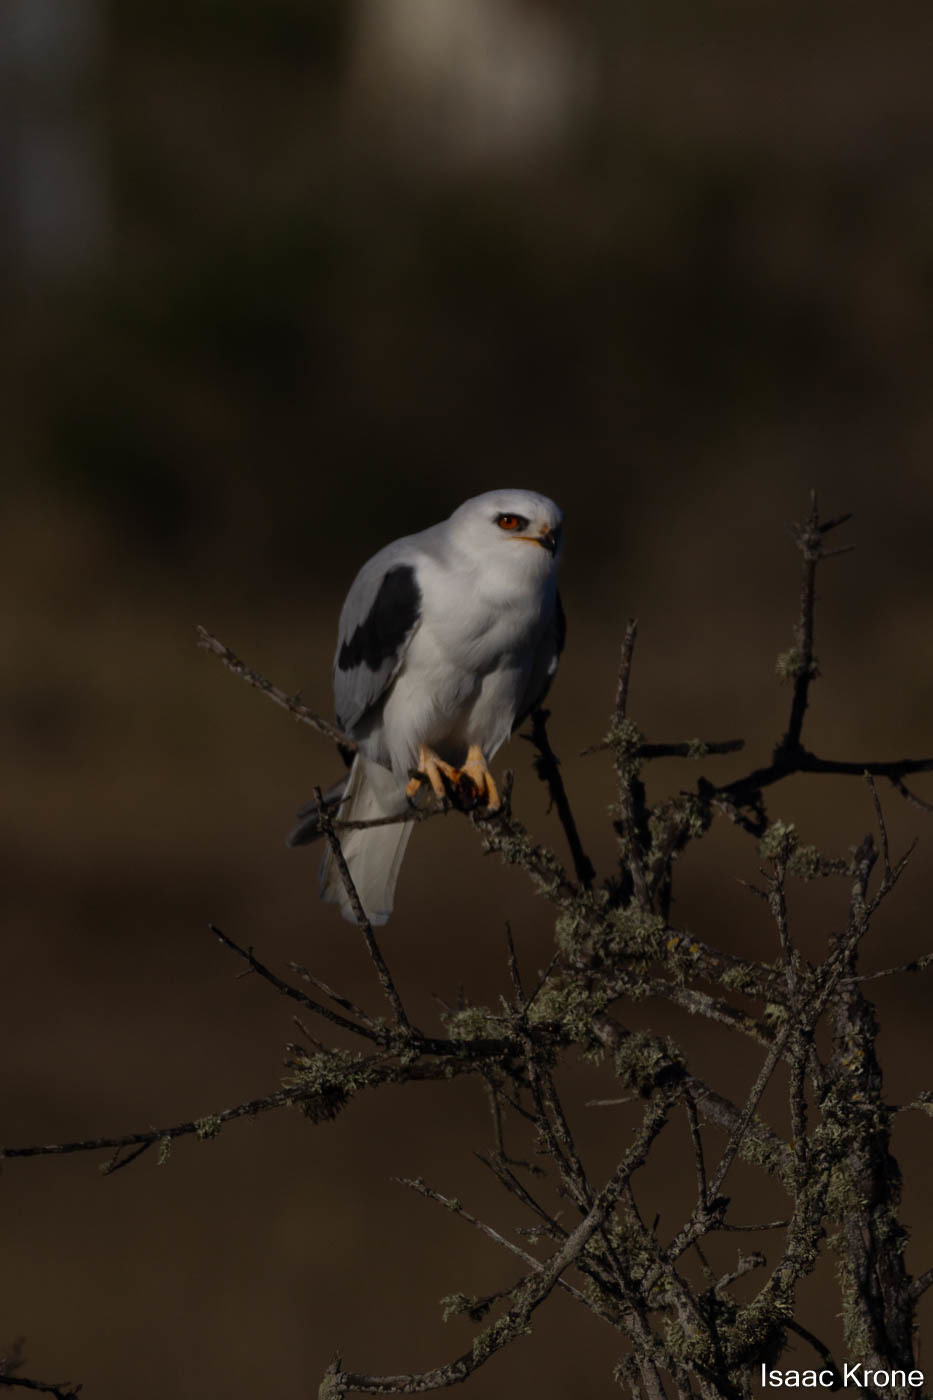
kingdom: Animalia
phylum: Chordata
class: Aves
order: Accipitriformes
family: Accipitridae
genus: Elanus
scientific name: Elanus leucurus
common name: White-tailed kite
